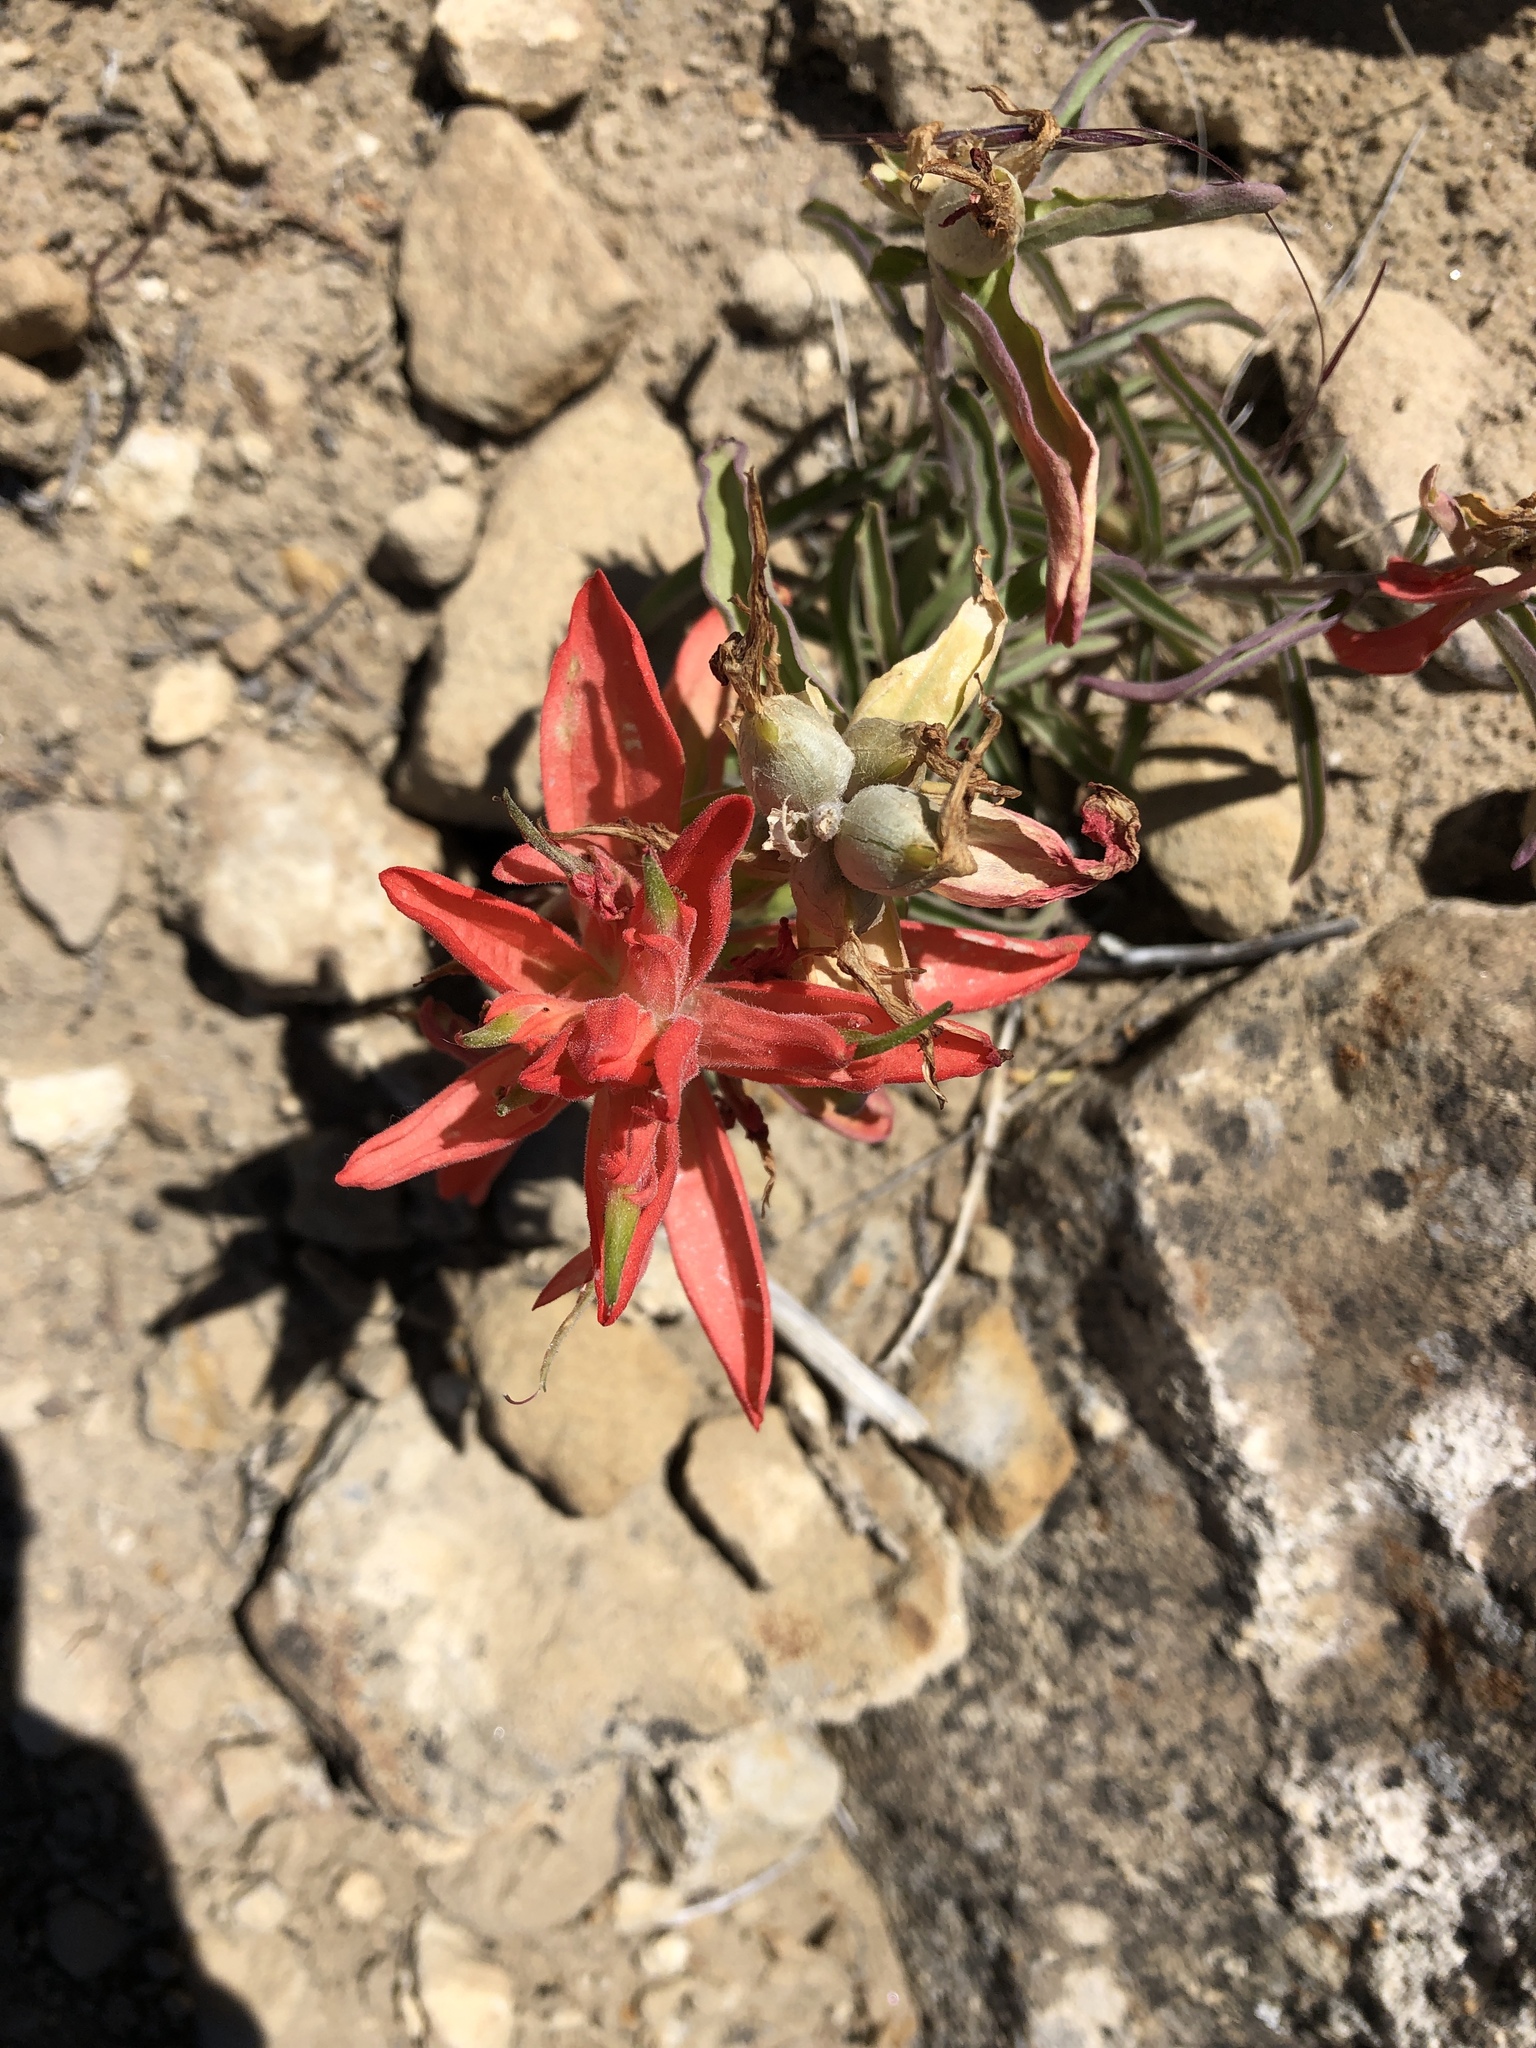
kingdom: Plantae
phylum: Tracheophyta
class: Magnoliopsida
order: Lamiales
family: Orobanchaceae
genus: Castilleja
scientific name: Castilleja integra
